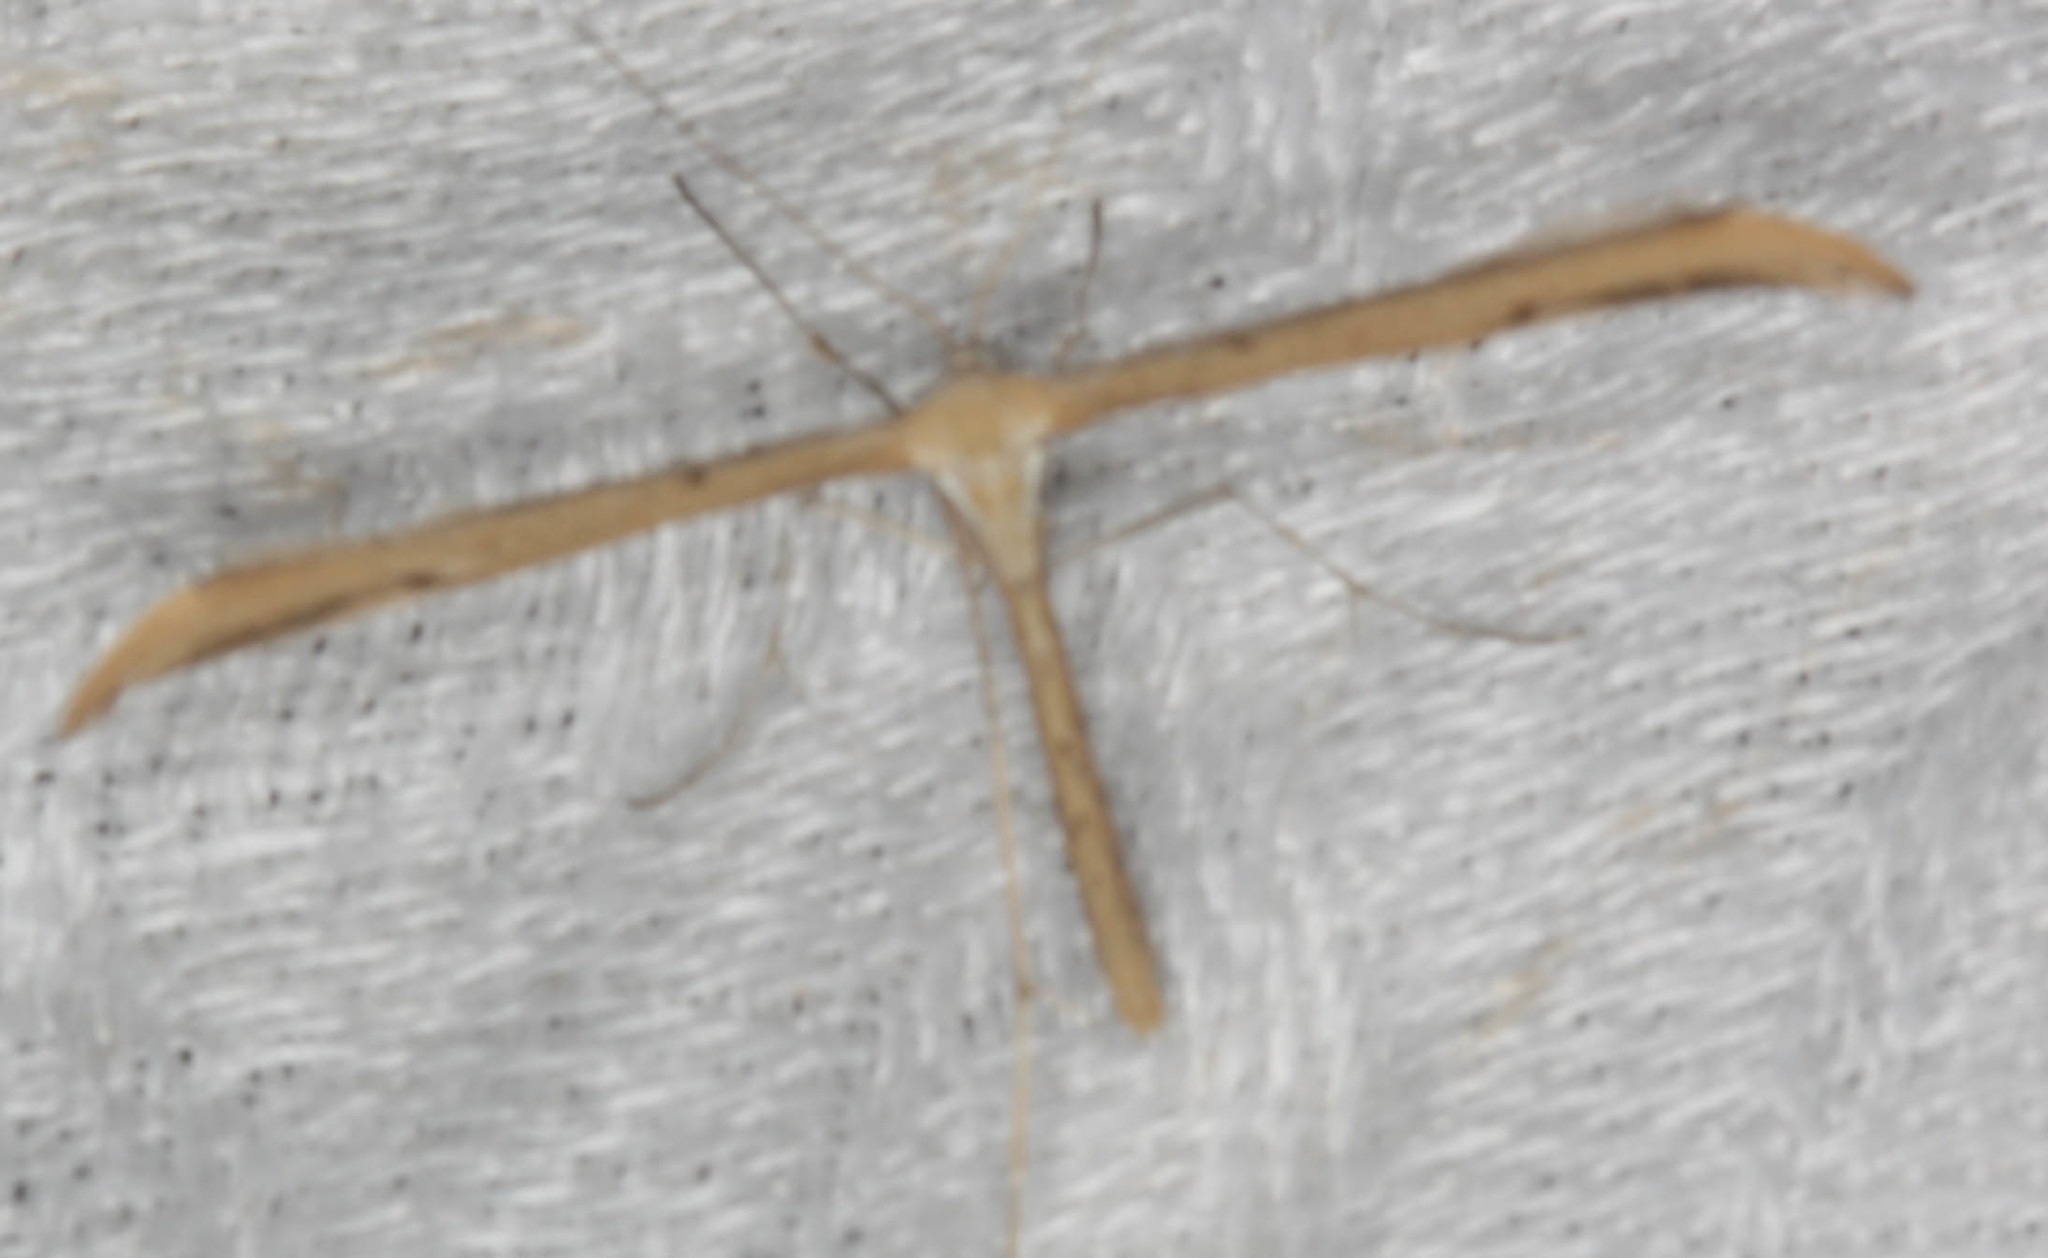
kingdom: Animalia
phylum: Arthropoda
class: Insecta
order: Lepidoptera
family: Pterophoridae
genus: Emmelina
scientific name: Emmelina monodactyla
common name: Common plume
